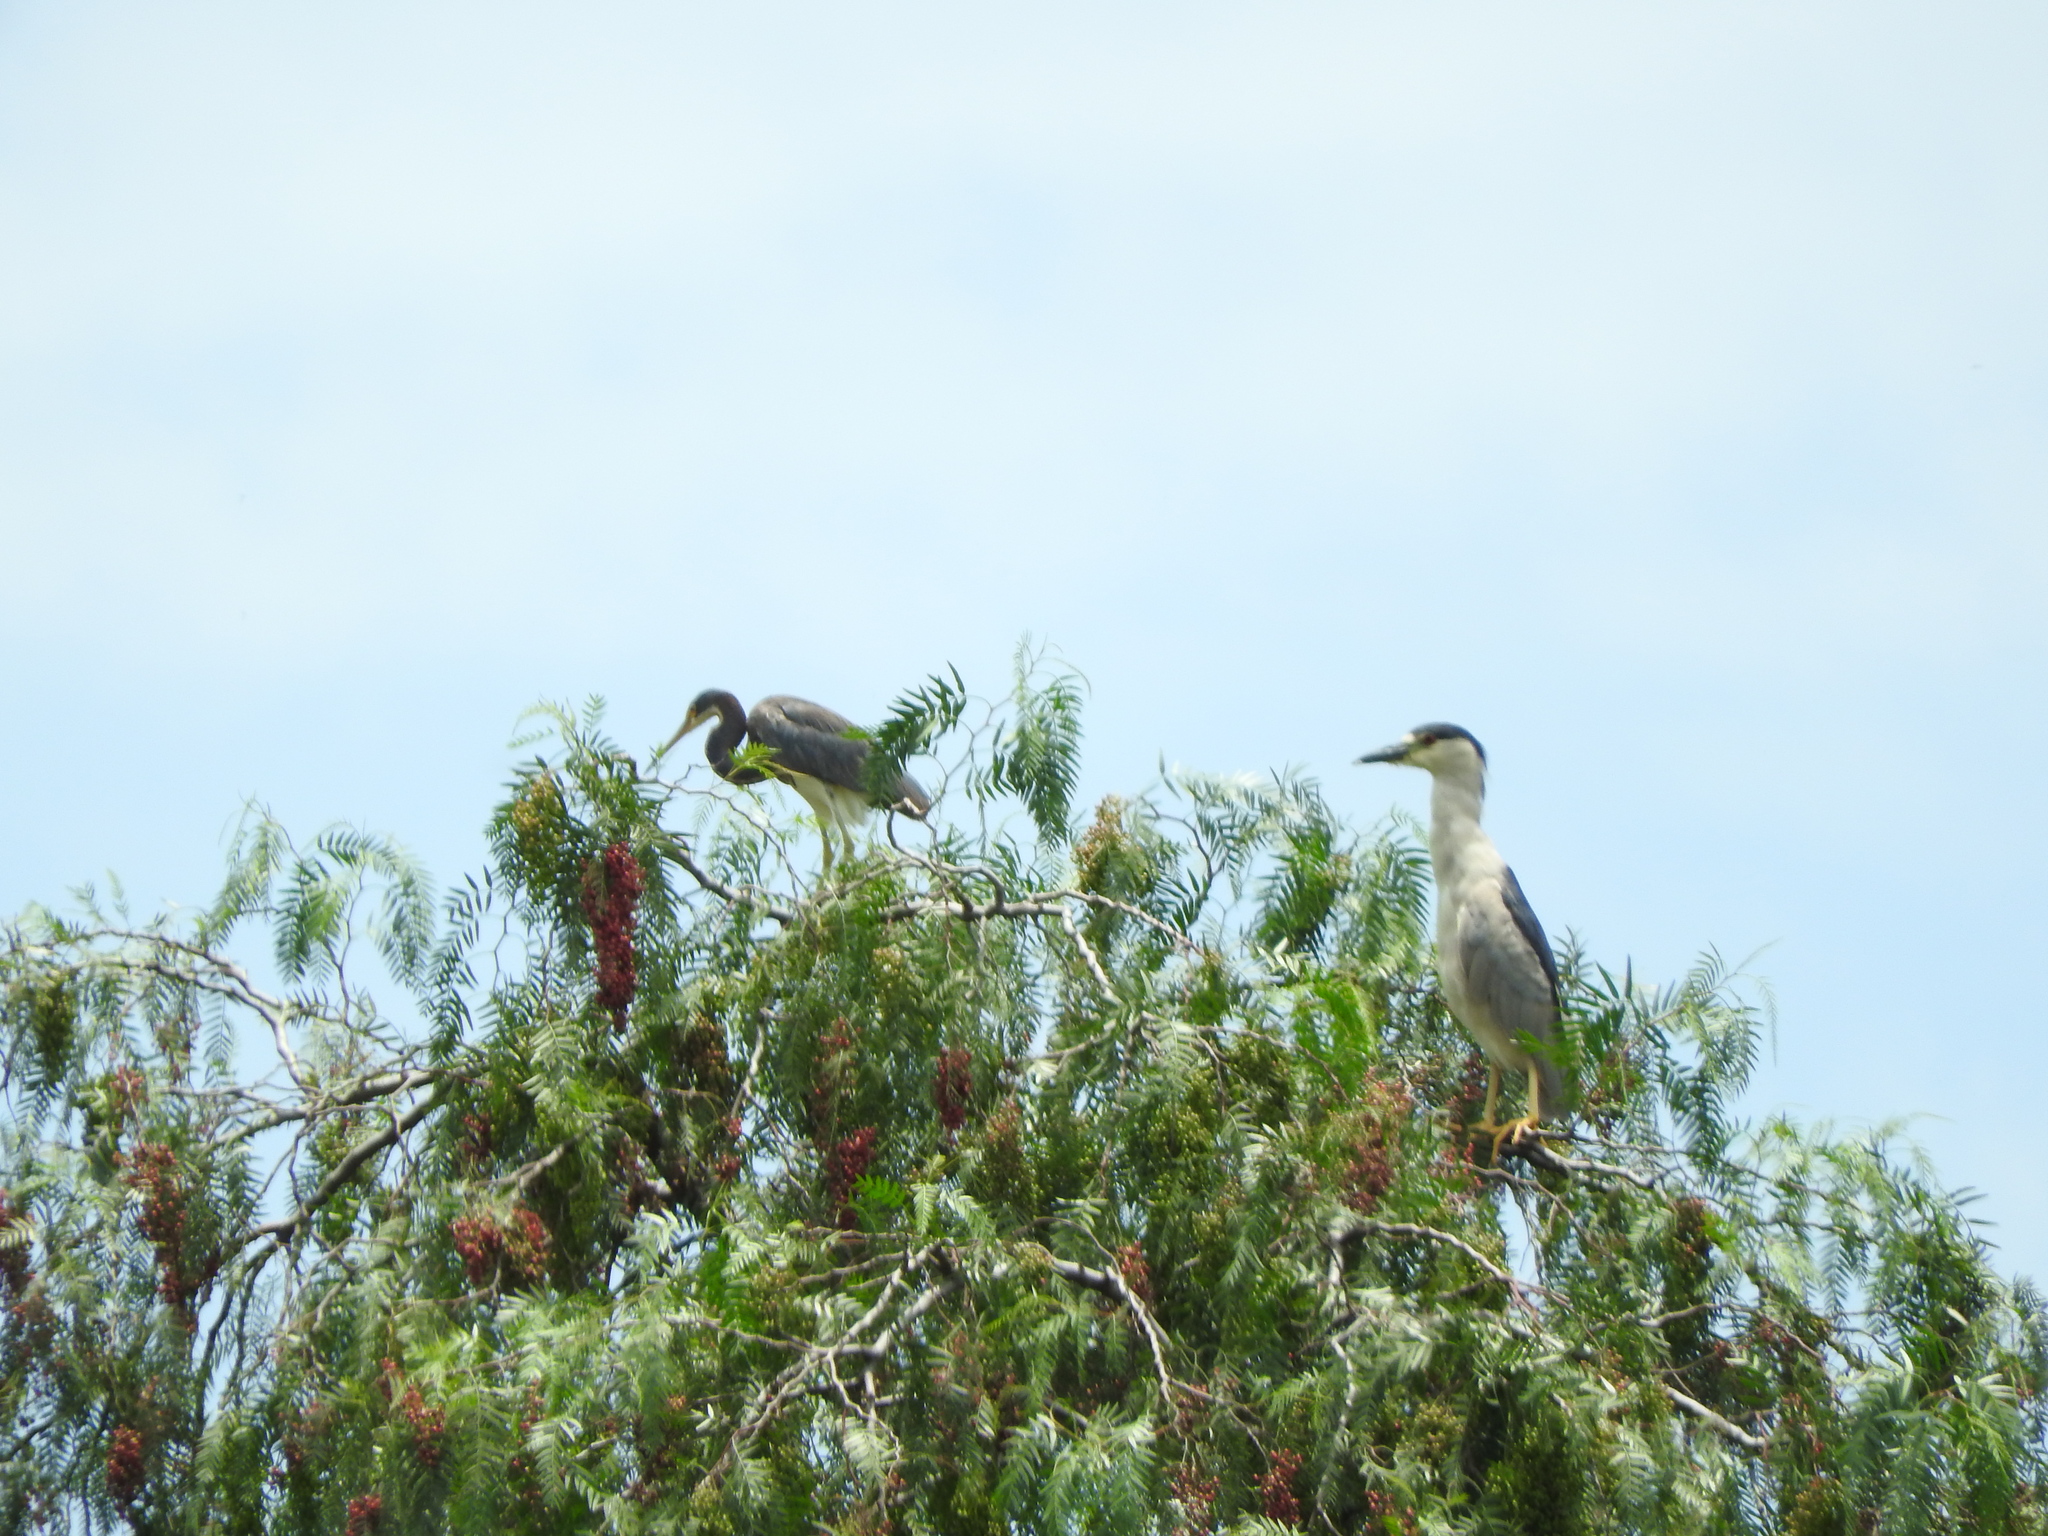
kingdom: Animalia
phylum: Chordata
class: Aves
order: Pelecaniformes
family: Ardeidae
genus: Nycticorax
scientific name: Nycticorax nycticorax
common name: Black-crowned night heron
